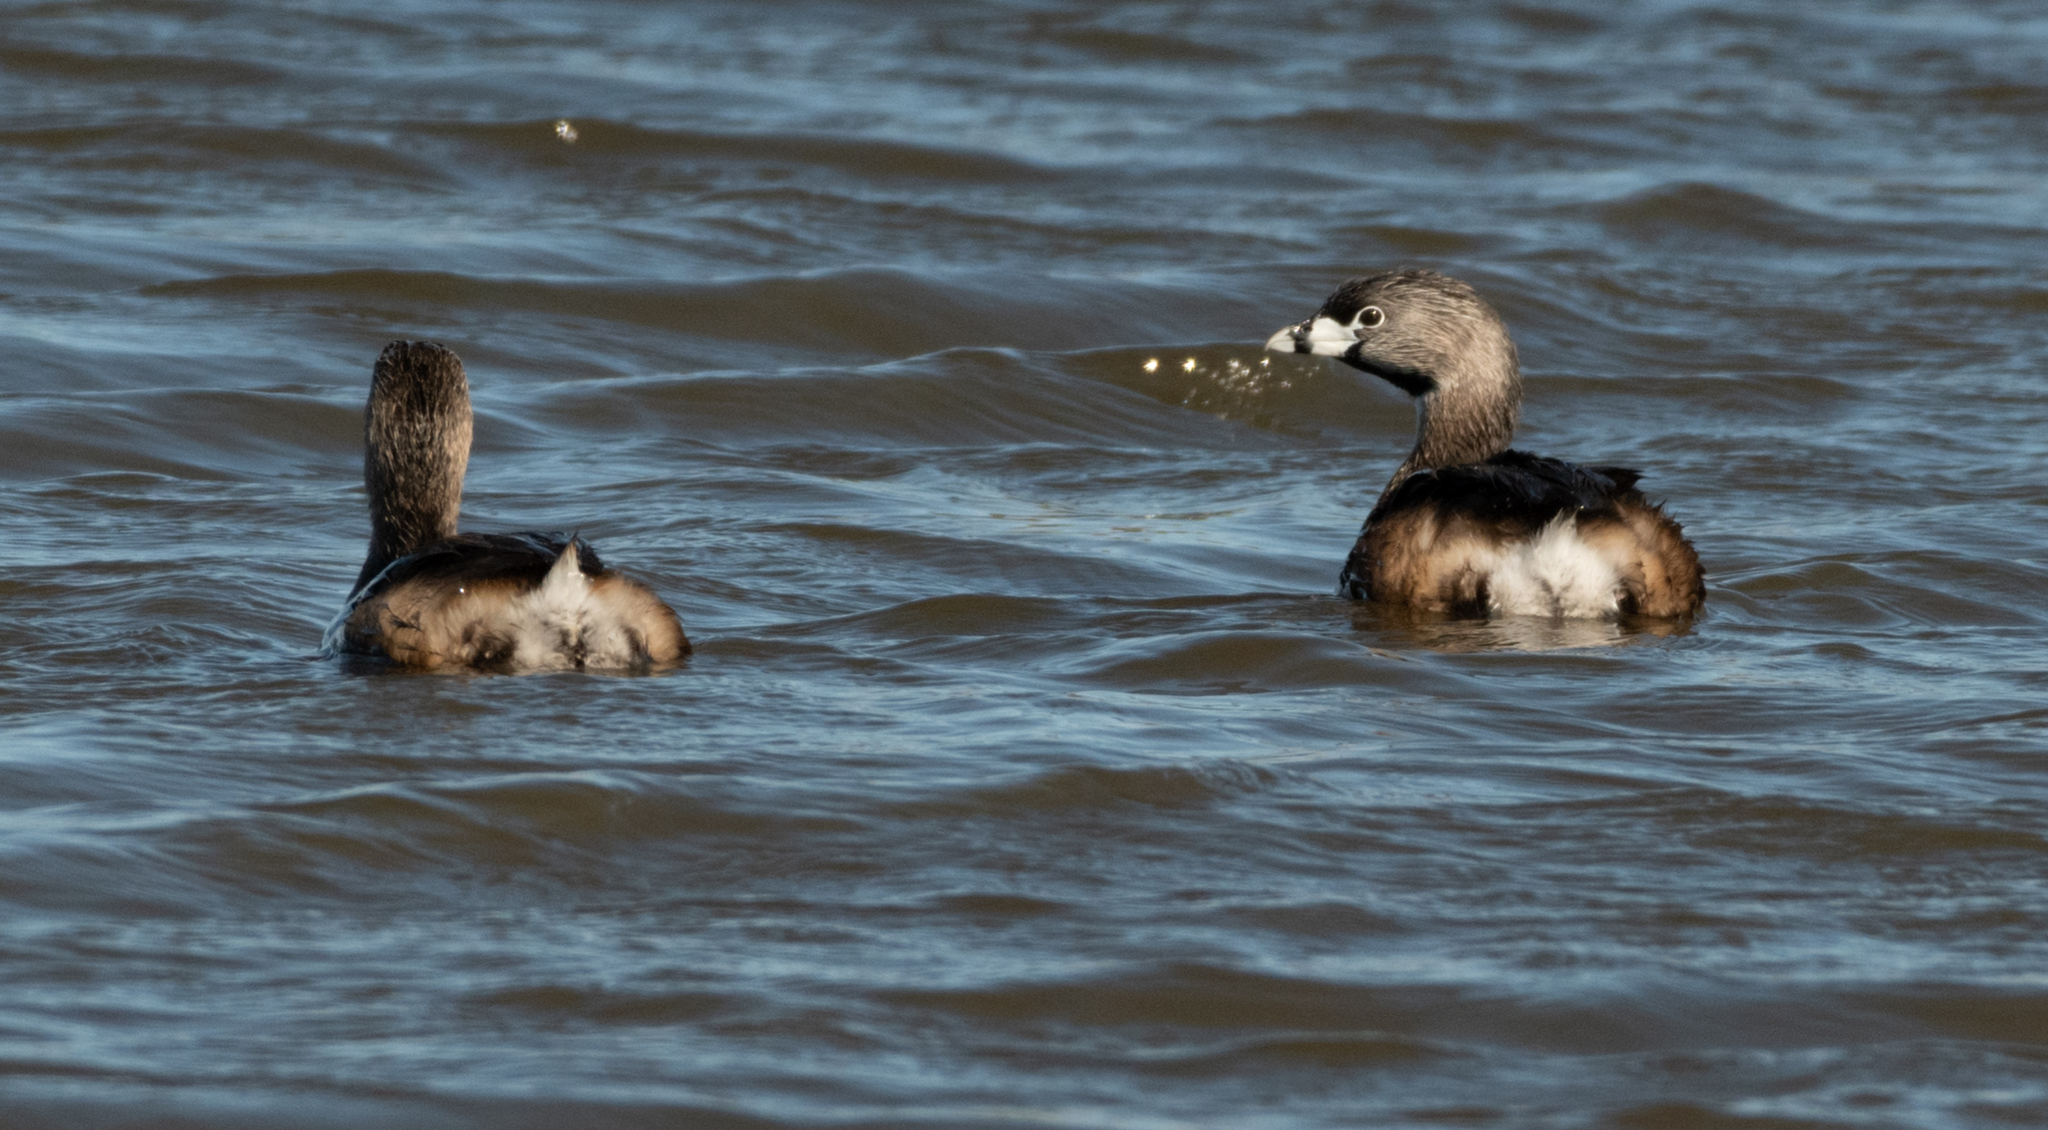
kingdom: Animalia
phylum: Chordata
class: Aves
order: Podicipediformes
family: Podicipedidae
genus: Podilymbus
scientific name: Podilymbus podiceps
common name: Pied-billed grebe
